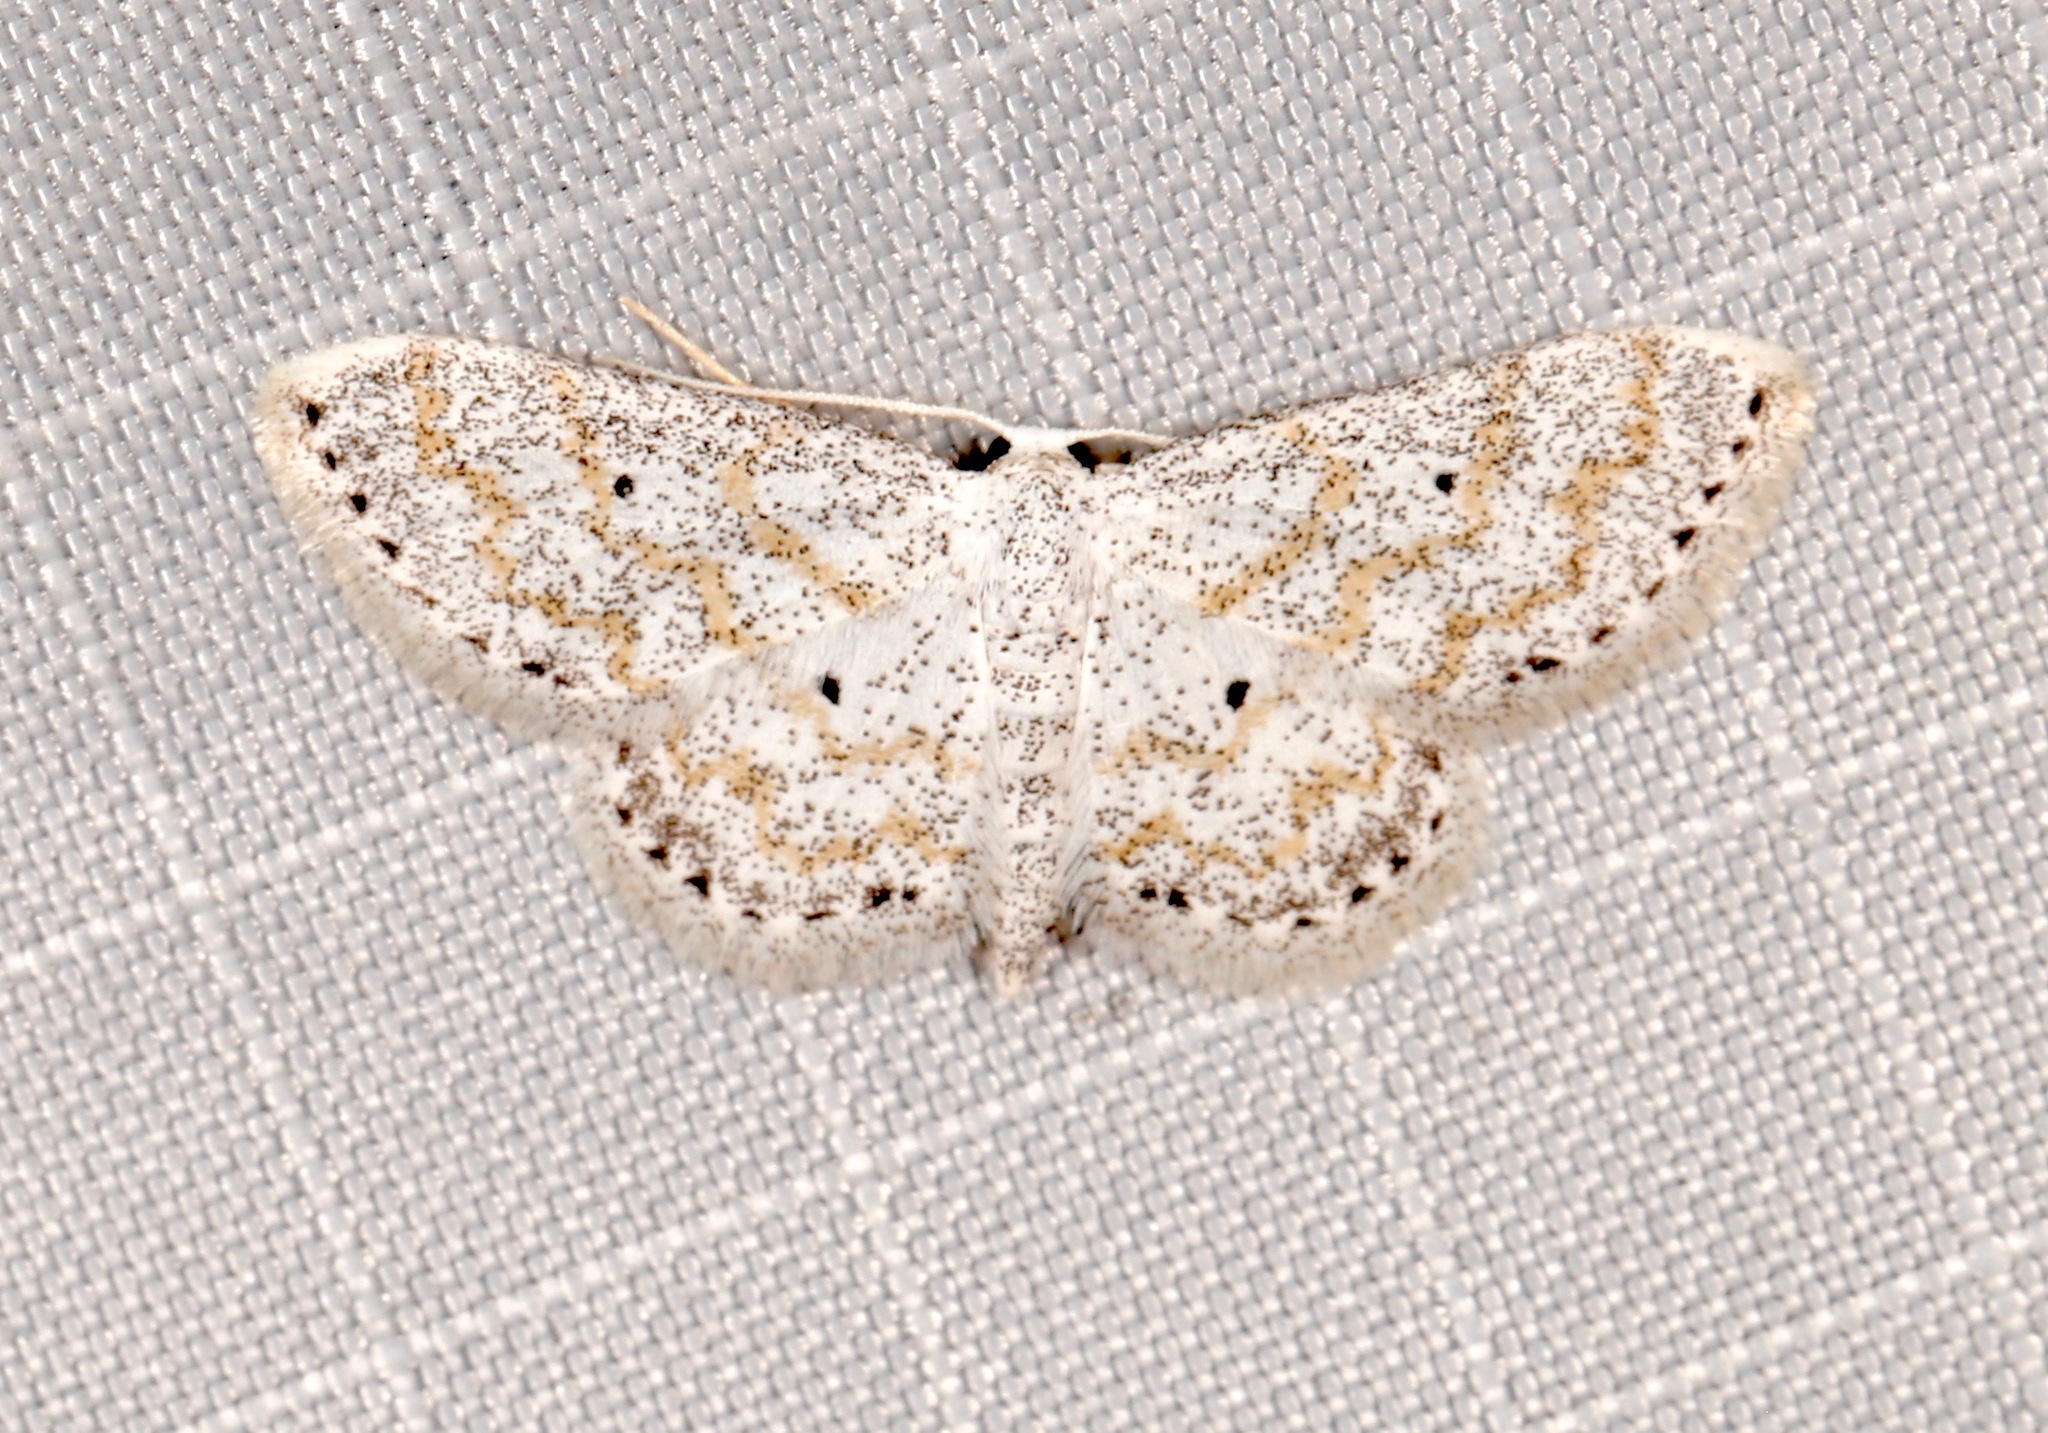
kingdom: Animalia
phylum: Arthropoda
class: Insecta
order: Lepidoptera
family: Geometridae
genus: Lobocleta
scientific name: Lobocleta peralbata
